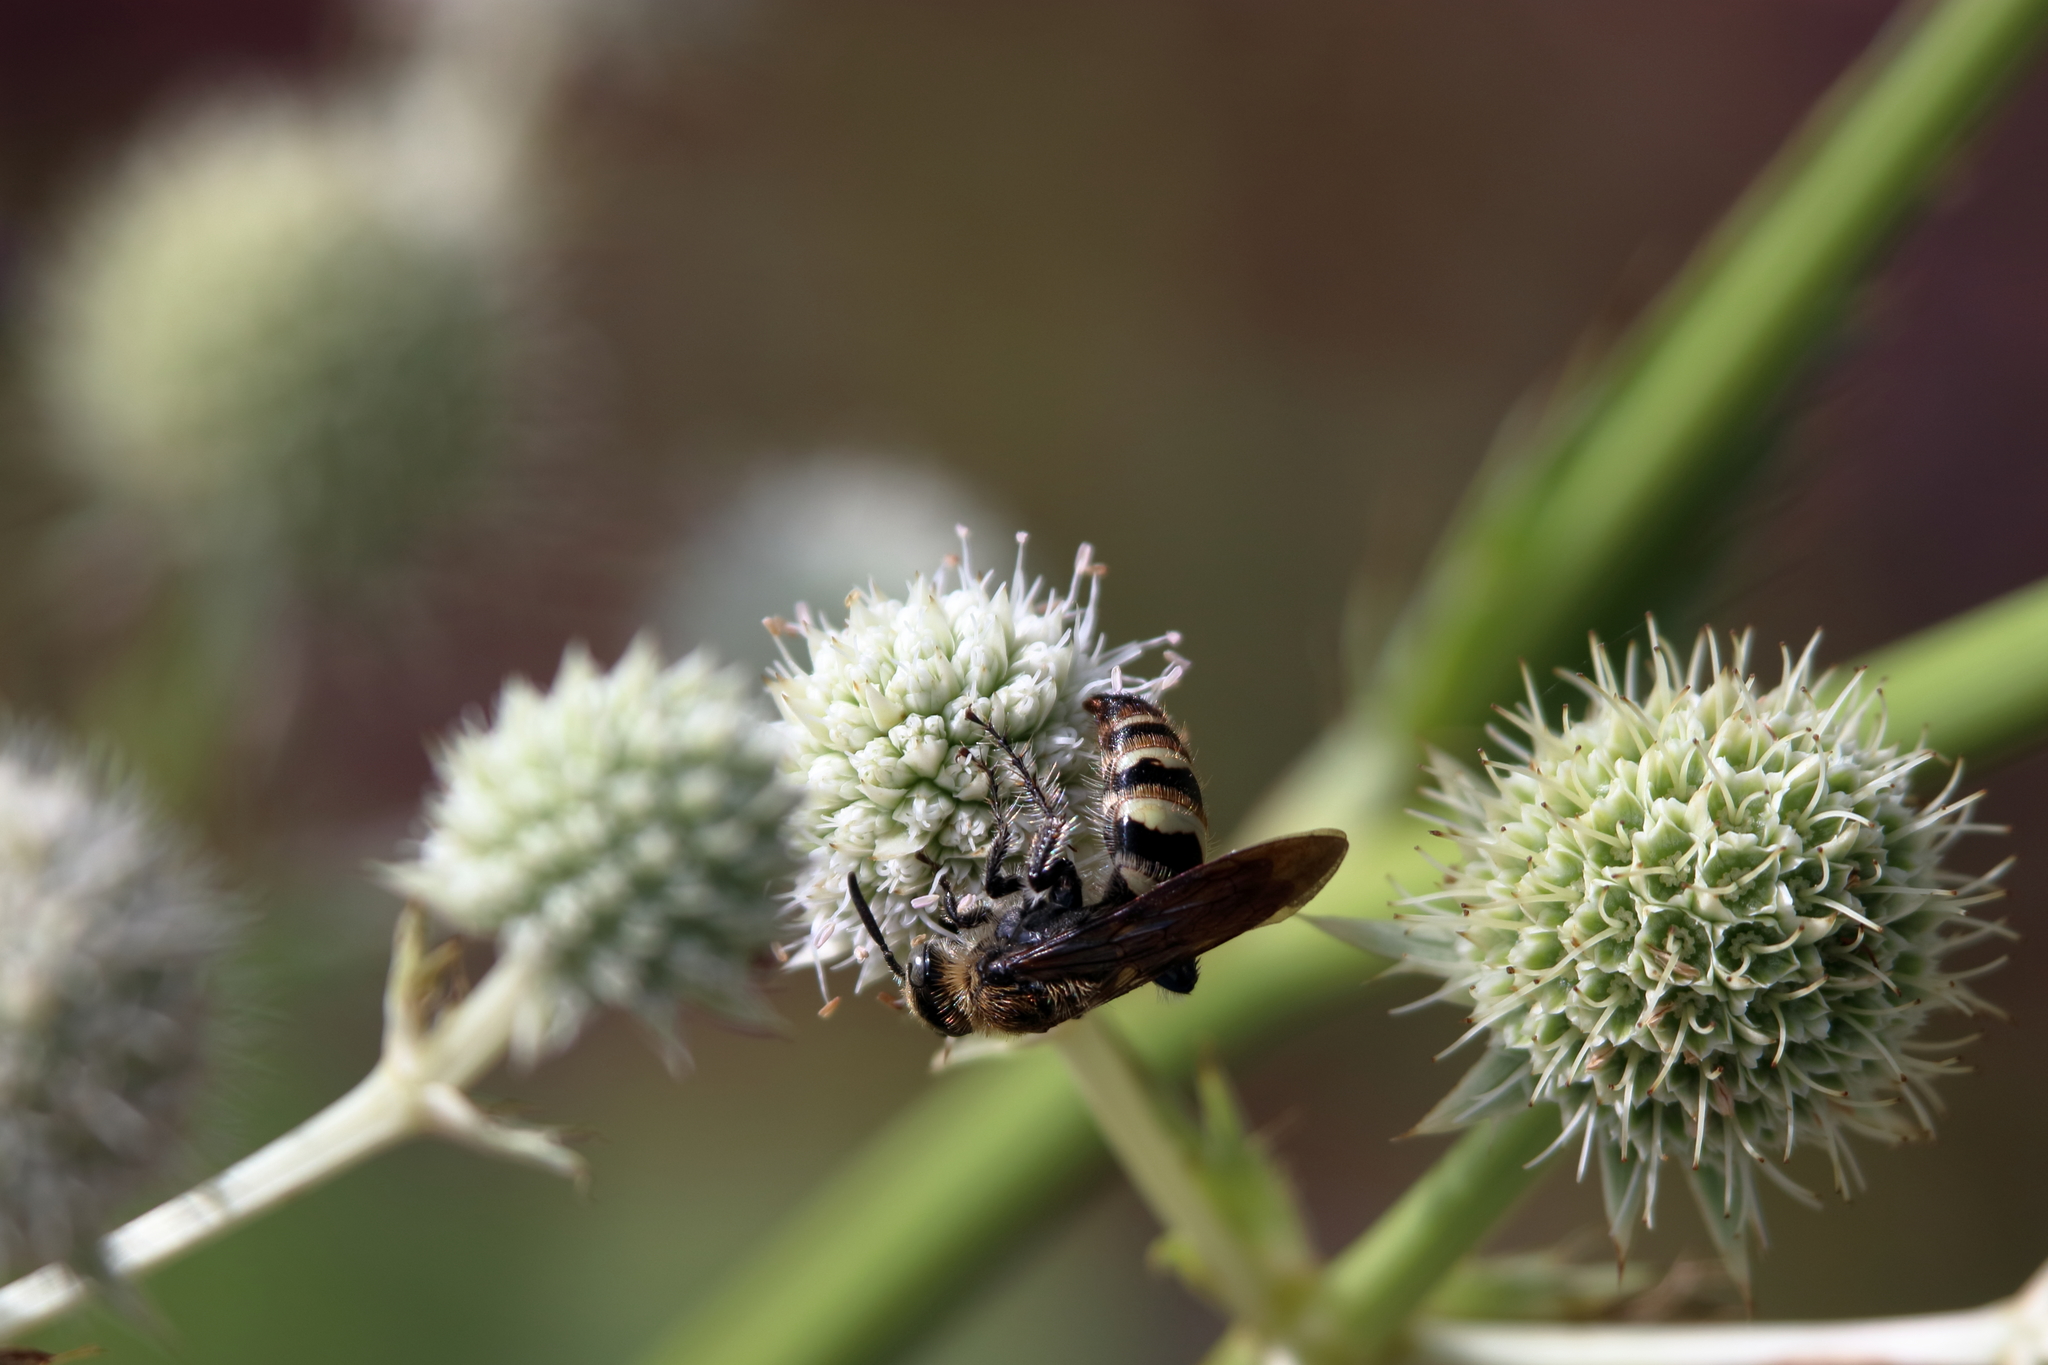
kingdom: Animalia
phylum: Arthropoda
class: Insecta
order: Hymenoptera
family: Scoliidae
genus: Dielis
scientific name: Dielis
